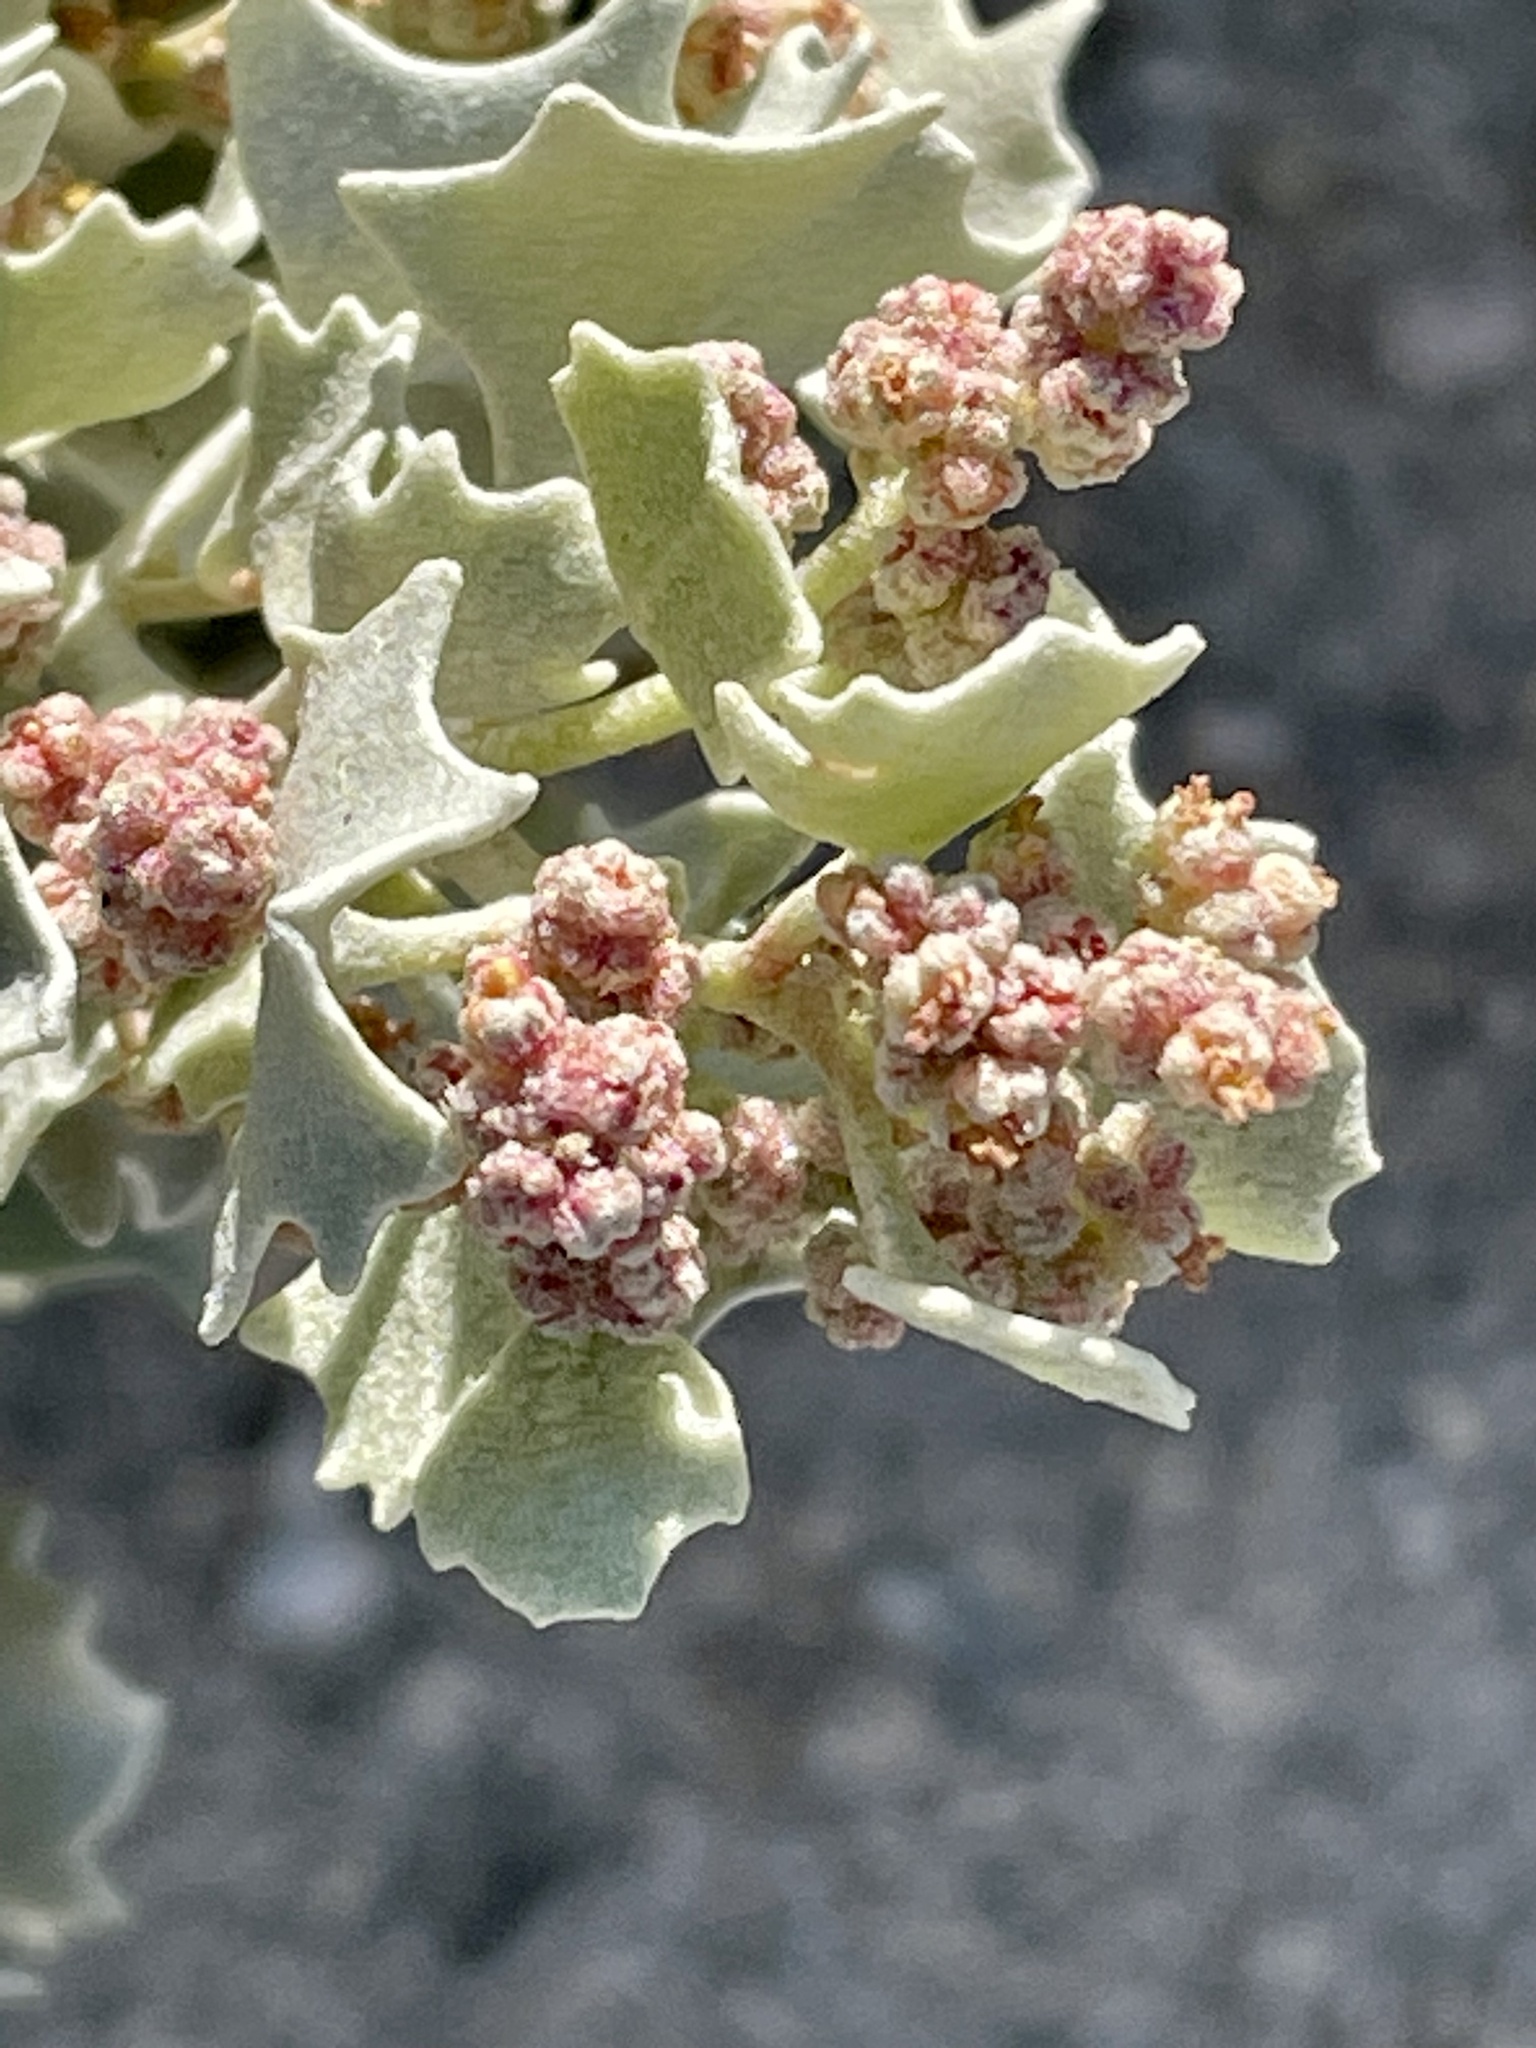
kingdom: Plantae
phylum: Tracheophyta
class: Magnoliopsida
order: Caryophyllales
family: Amaranthaceae
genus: Atriplex
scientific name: Atriplex hymenelytra
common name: Desert-holly
